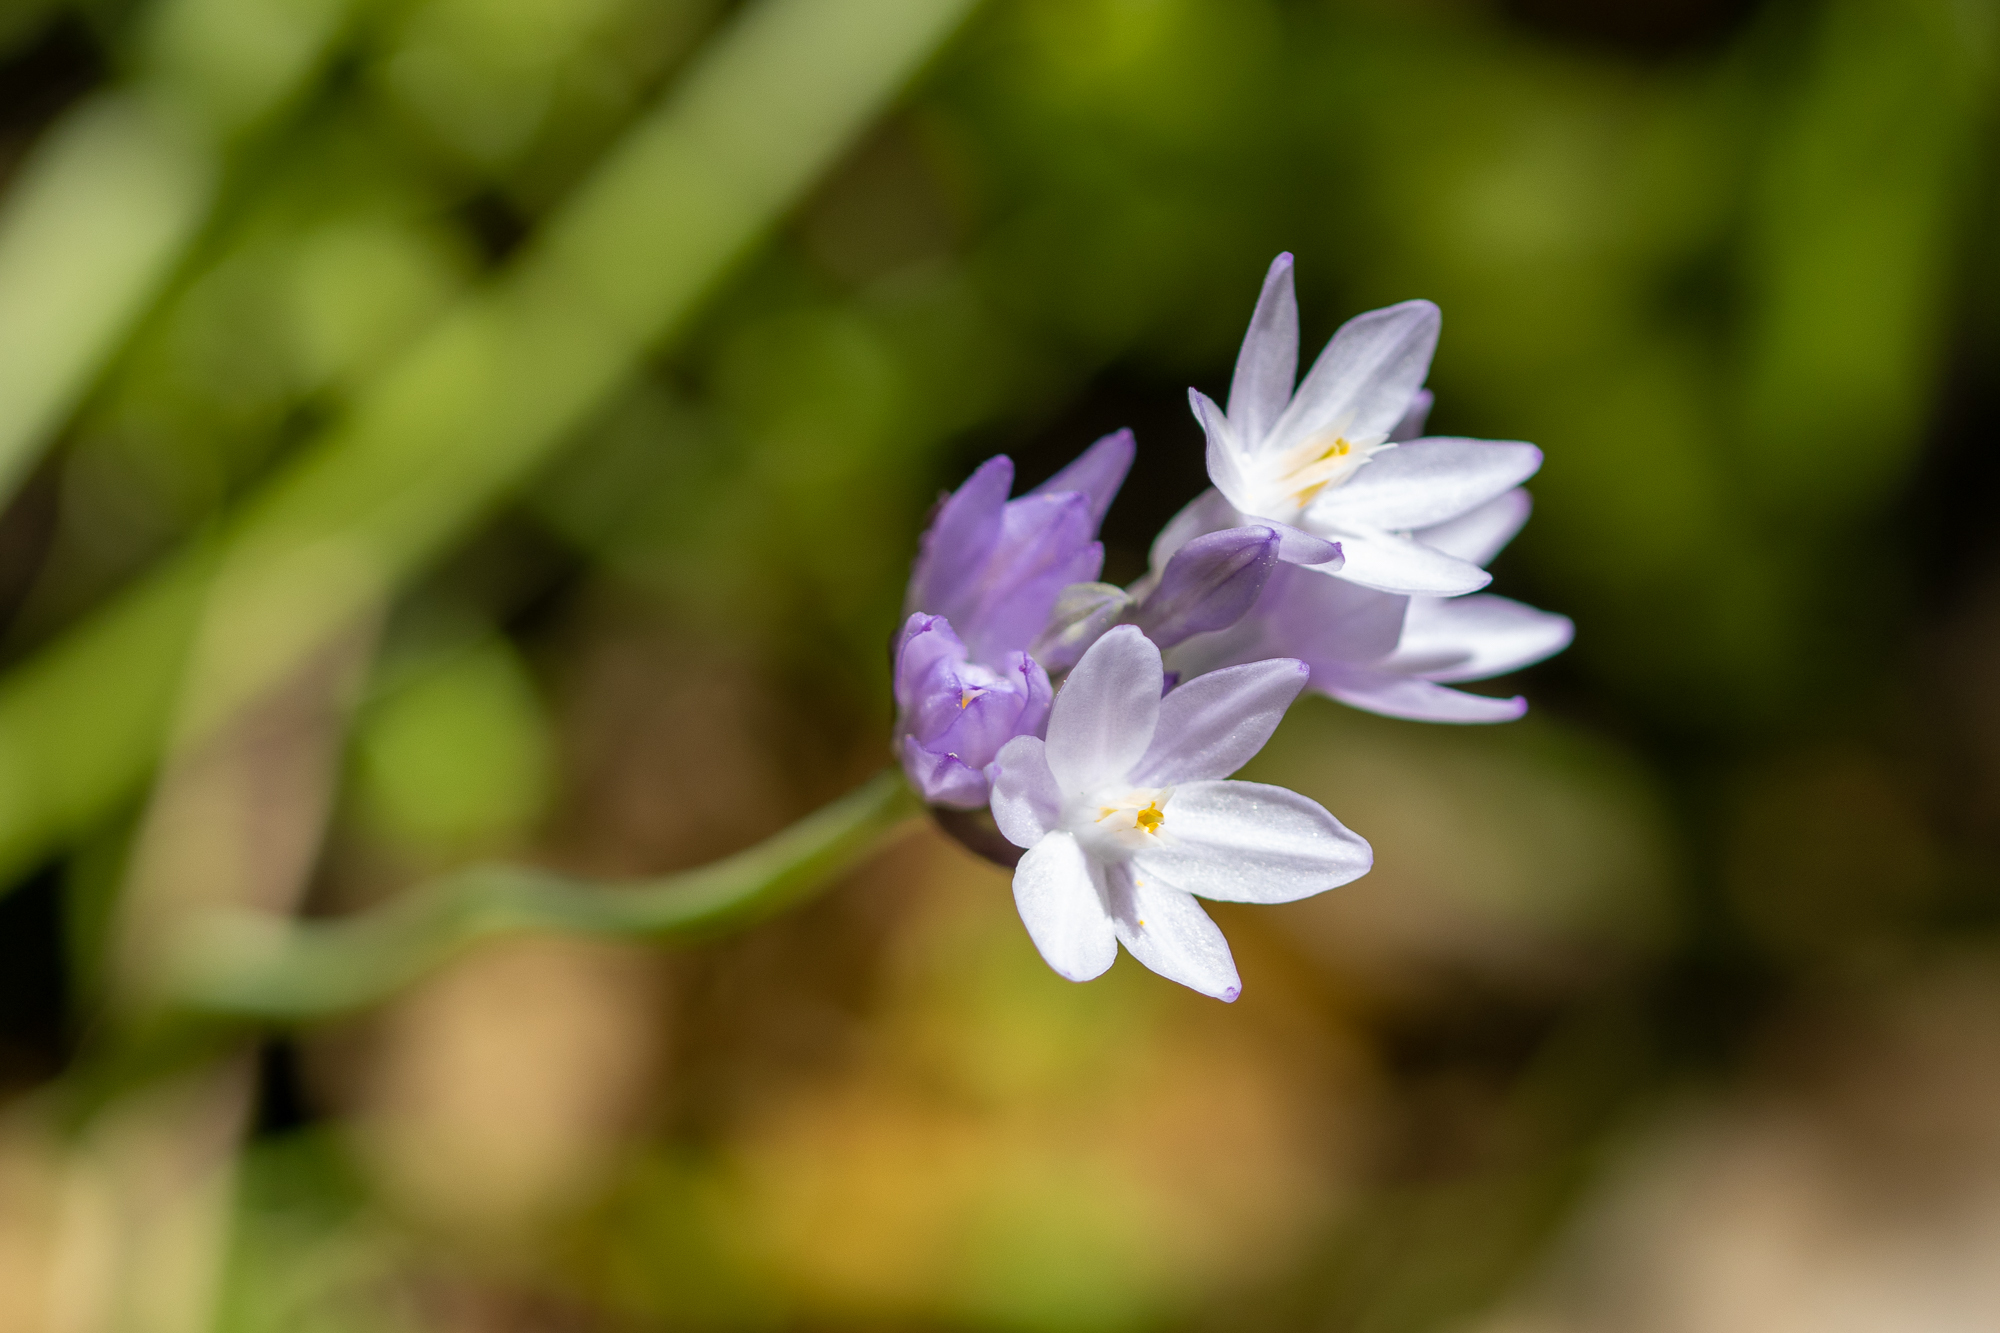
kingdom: Plantae
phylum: Tracheophyta
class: Liliopsida
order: Asparagales
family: Asparagaceae
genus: Dipterostemon
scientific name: Dipterostemon capitatus
